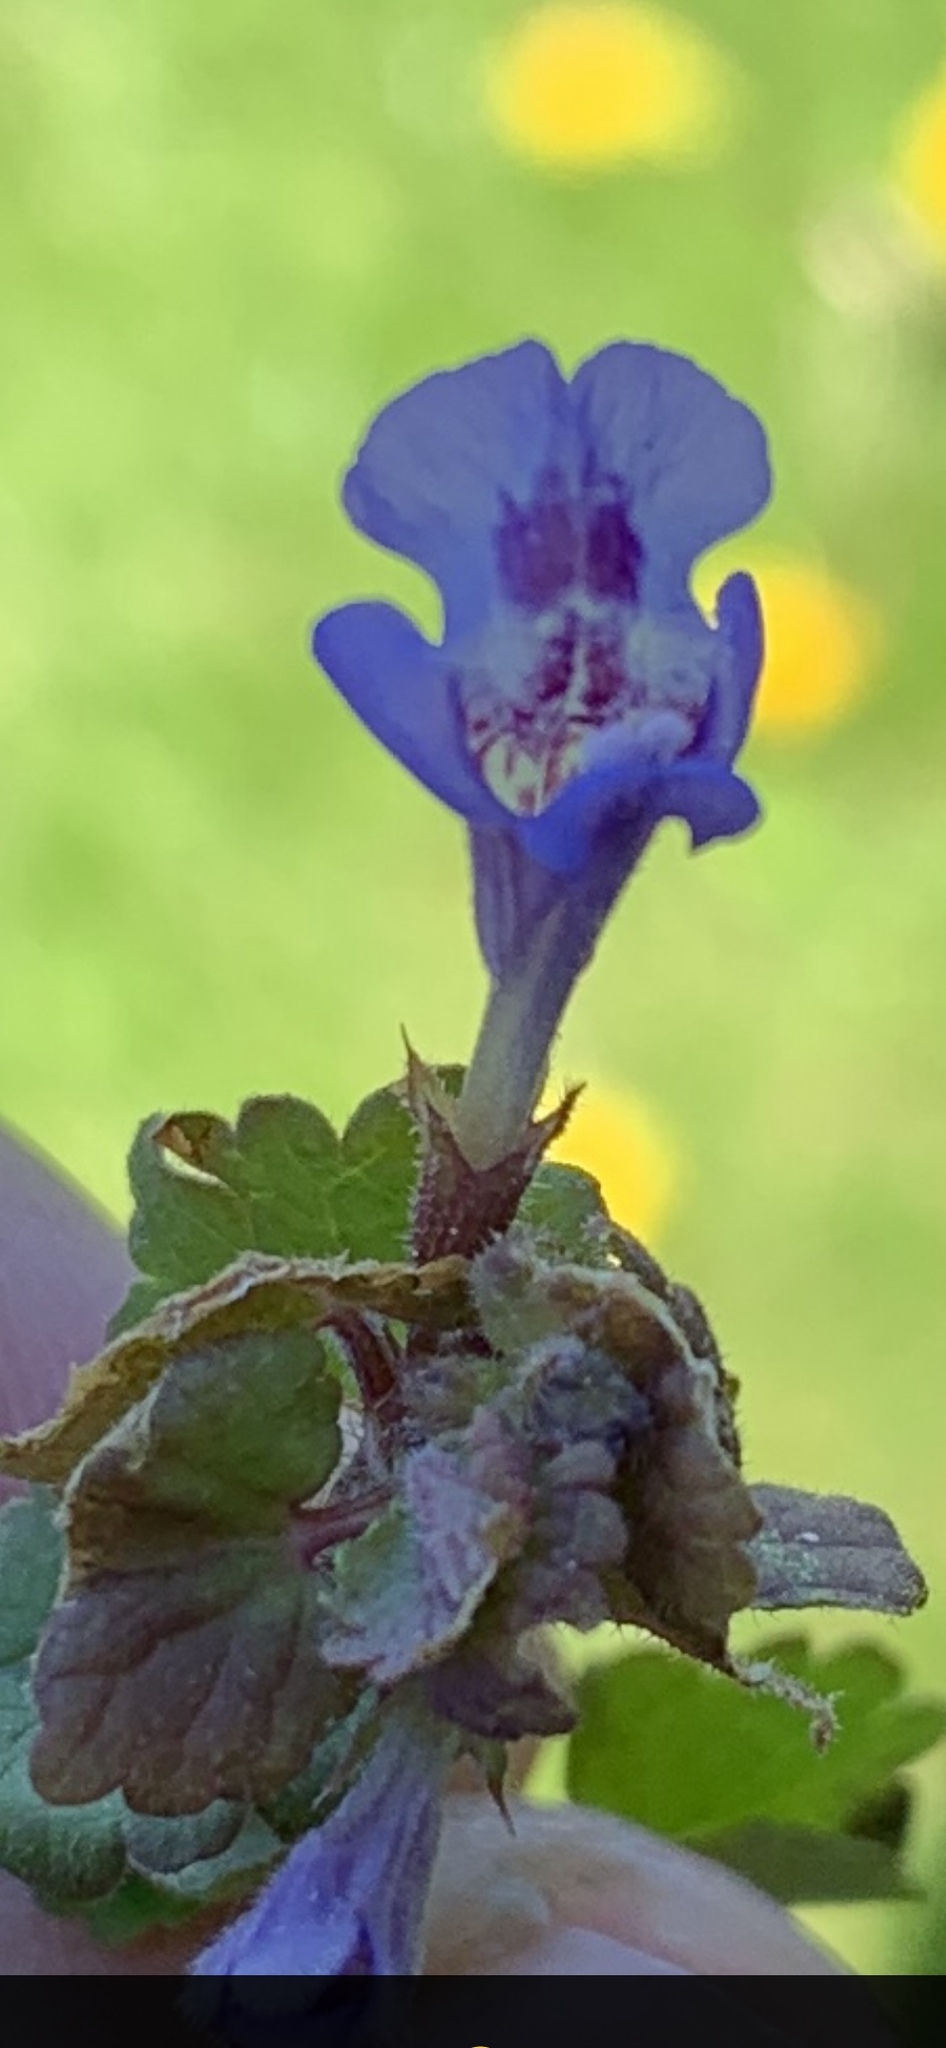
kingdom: Plantae
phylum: Tracheophyta
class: Magnoliopsida
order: Lamiales
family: Lamiaceae
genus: Glechoma
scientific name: Glechoma hederacea
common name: Ground ivy
